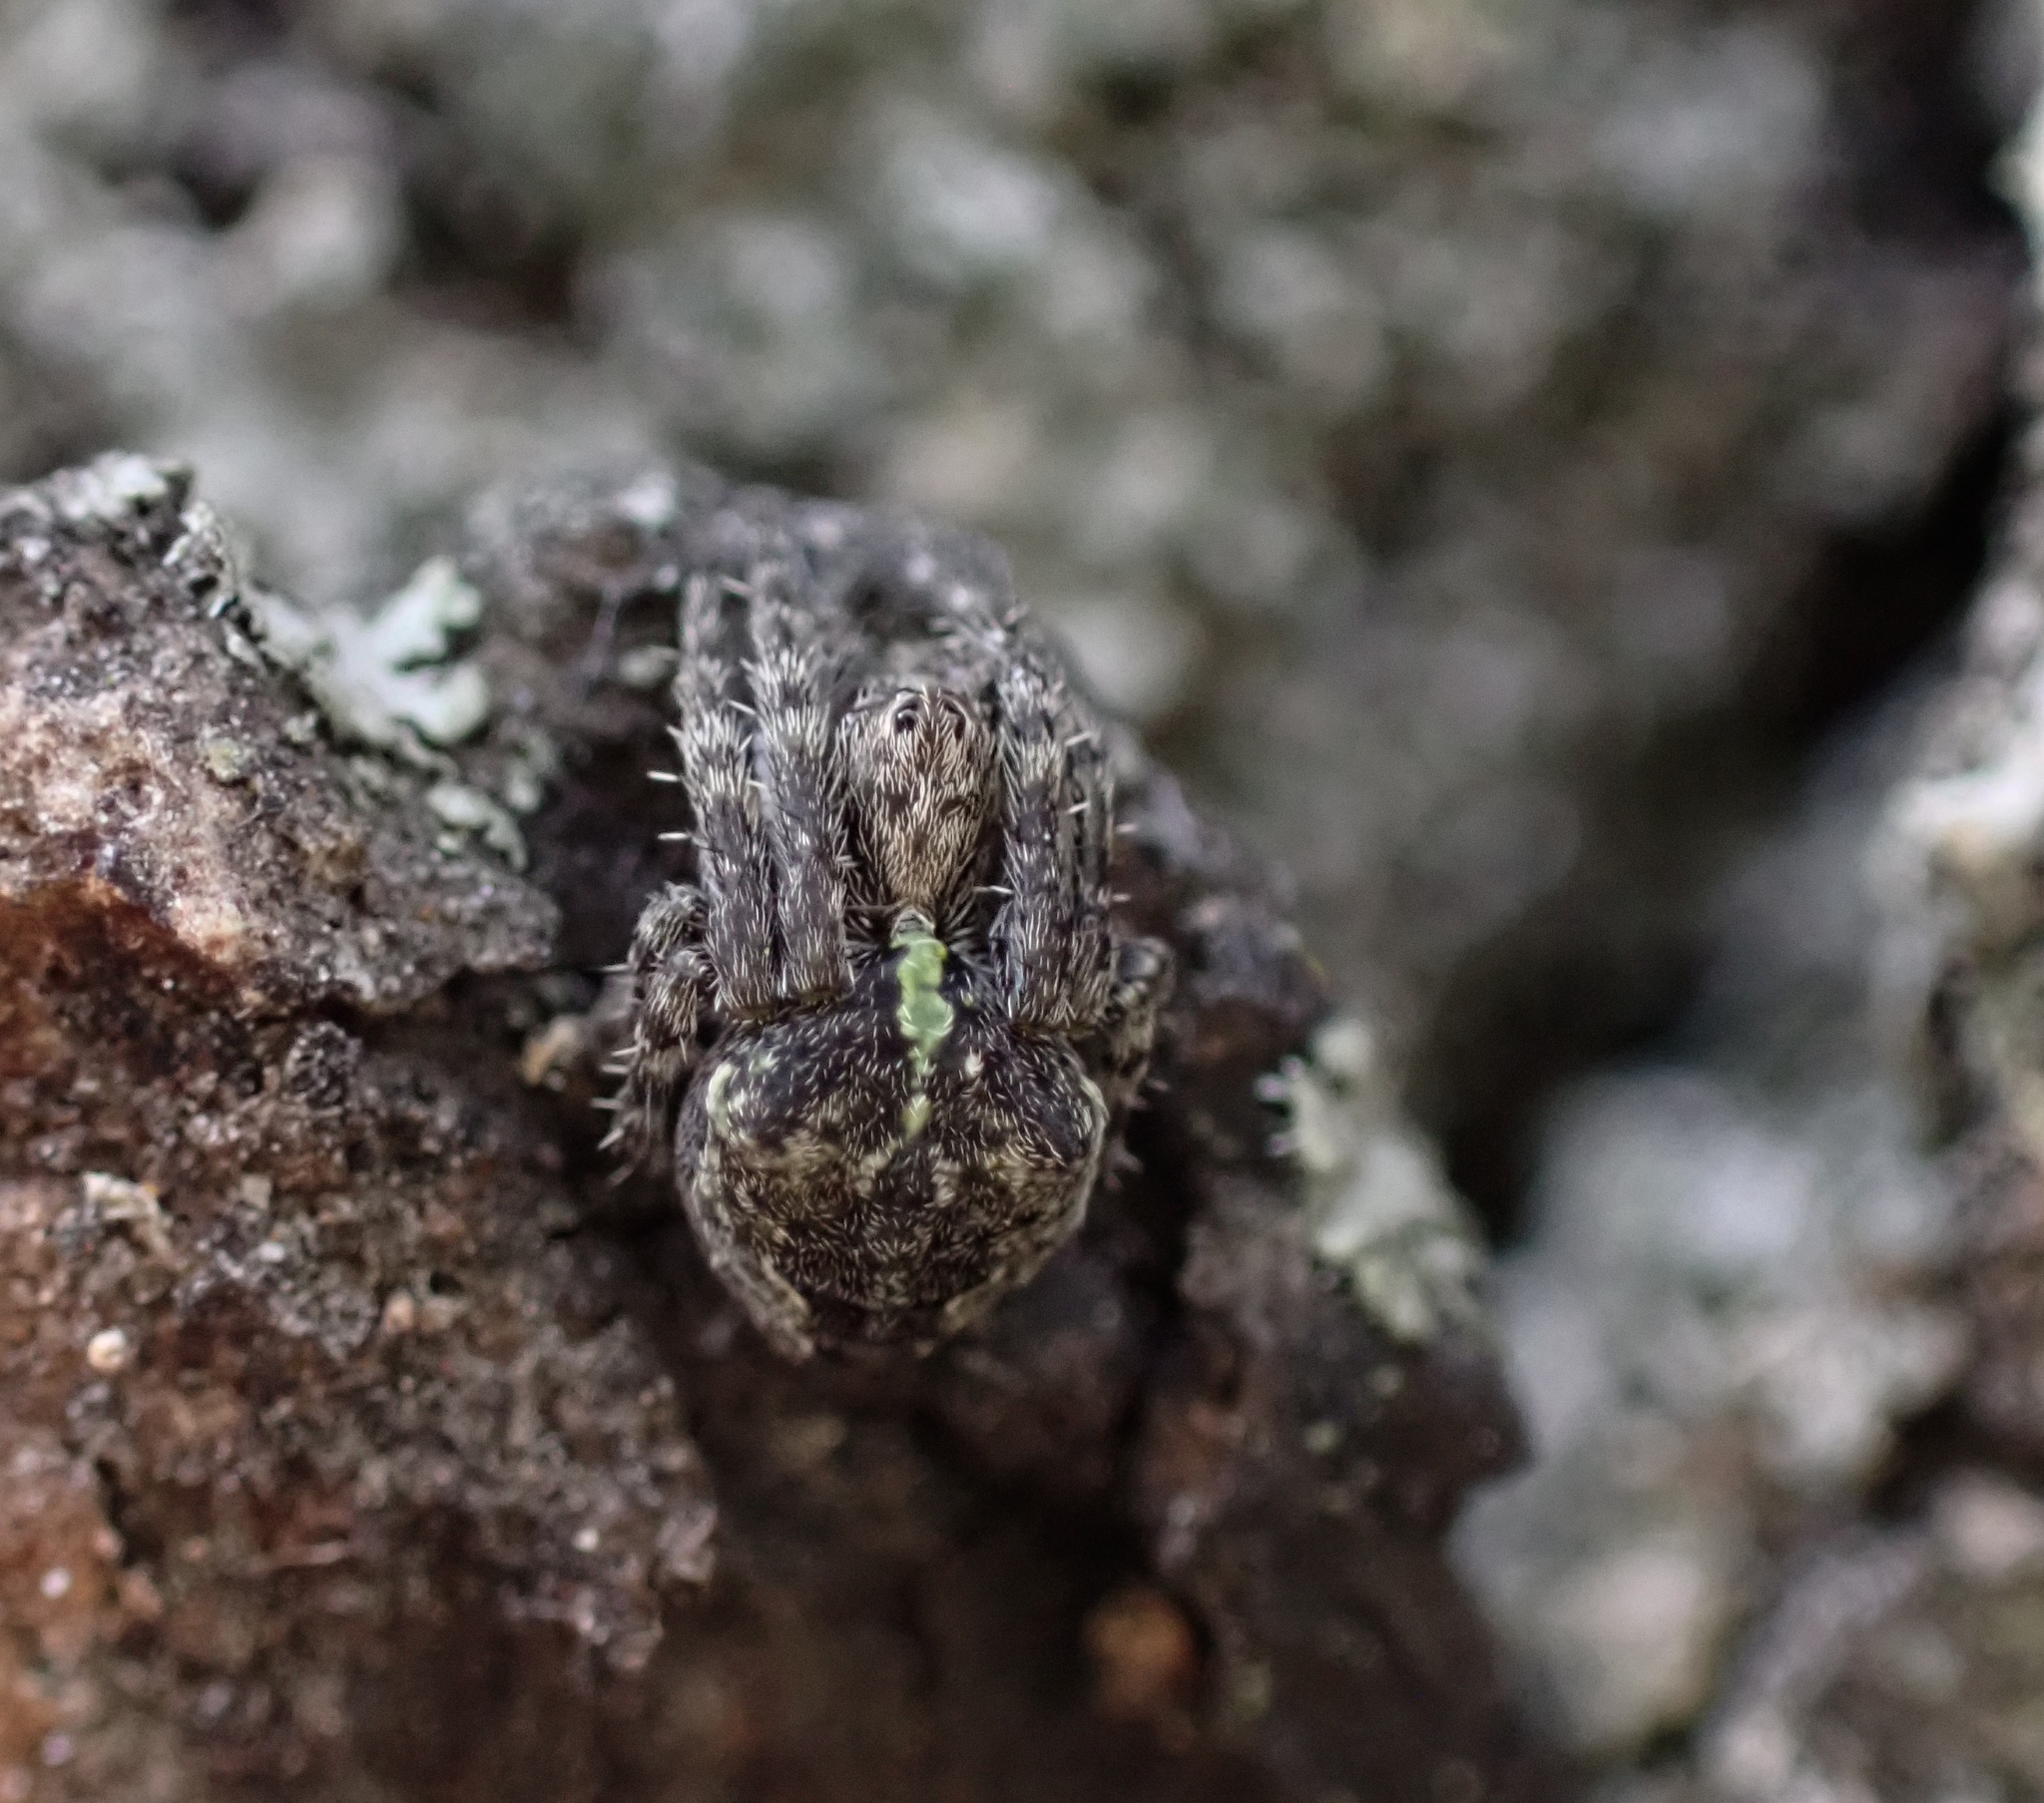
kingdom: Animalia
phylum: Arthropoda
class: Arachnida
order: Araneae
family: Araneidae
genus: Gibbaranea
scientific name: Gibbaranea gibbosa
